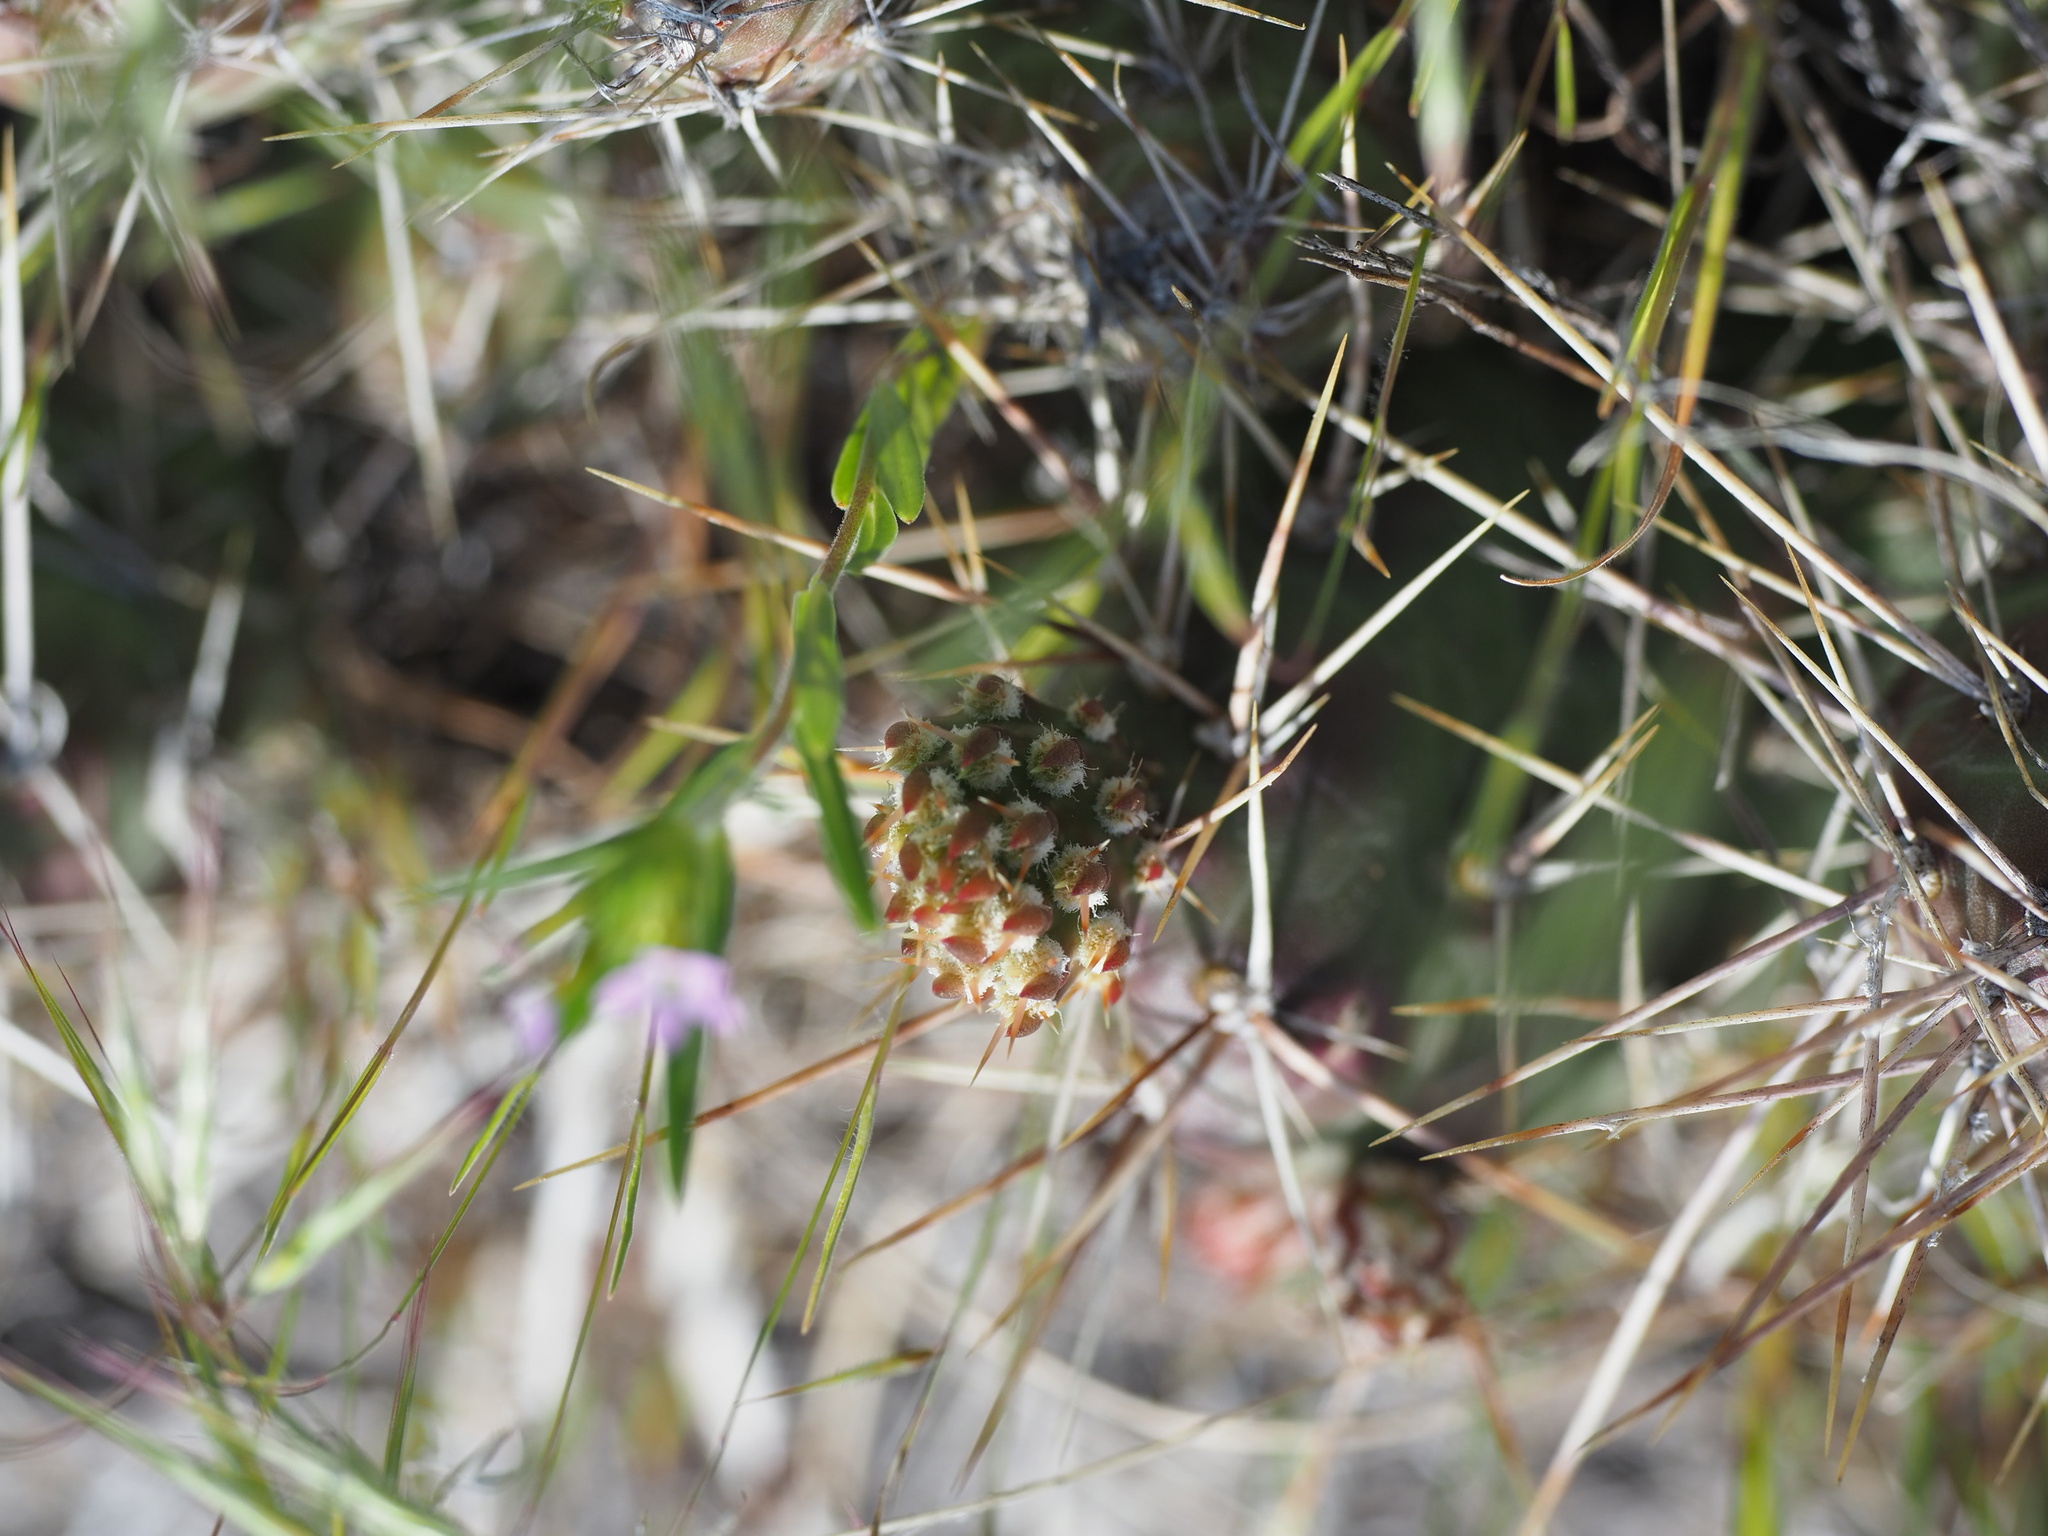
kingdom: Plantae
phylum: Tracheophyta
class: Magnoliopsida
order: Caryophyllales
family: Cactaceae
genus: Opuntia
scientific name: Opuntia fragilis
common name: Brittle cactus
